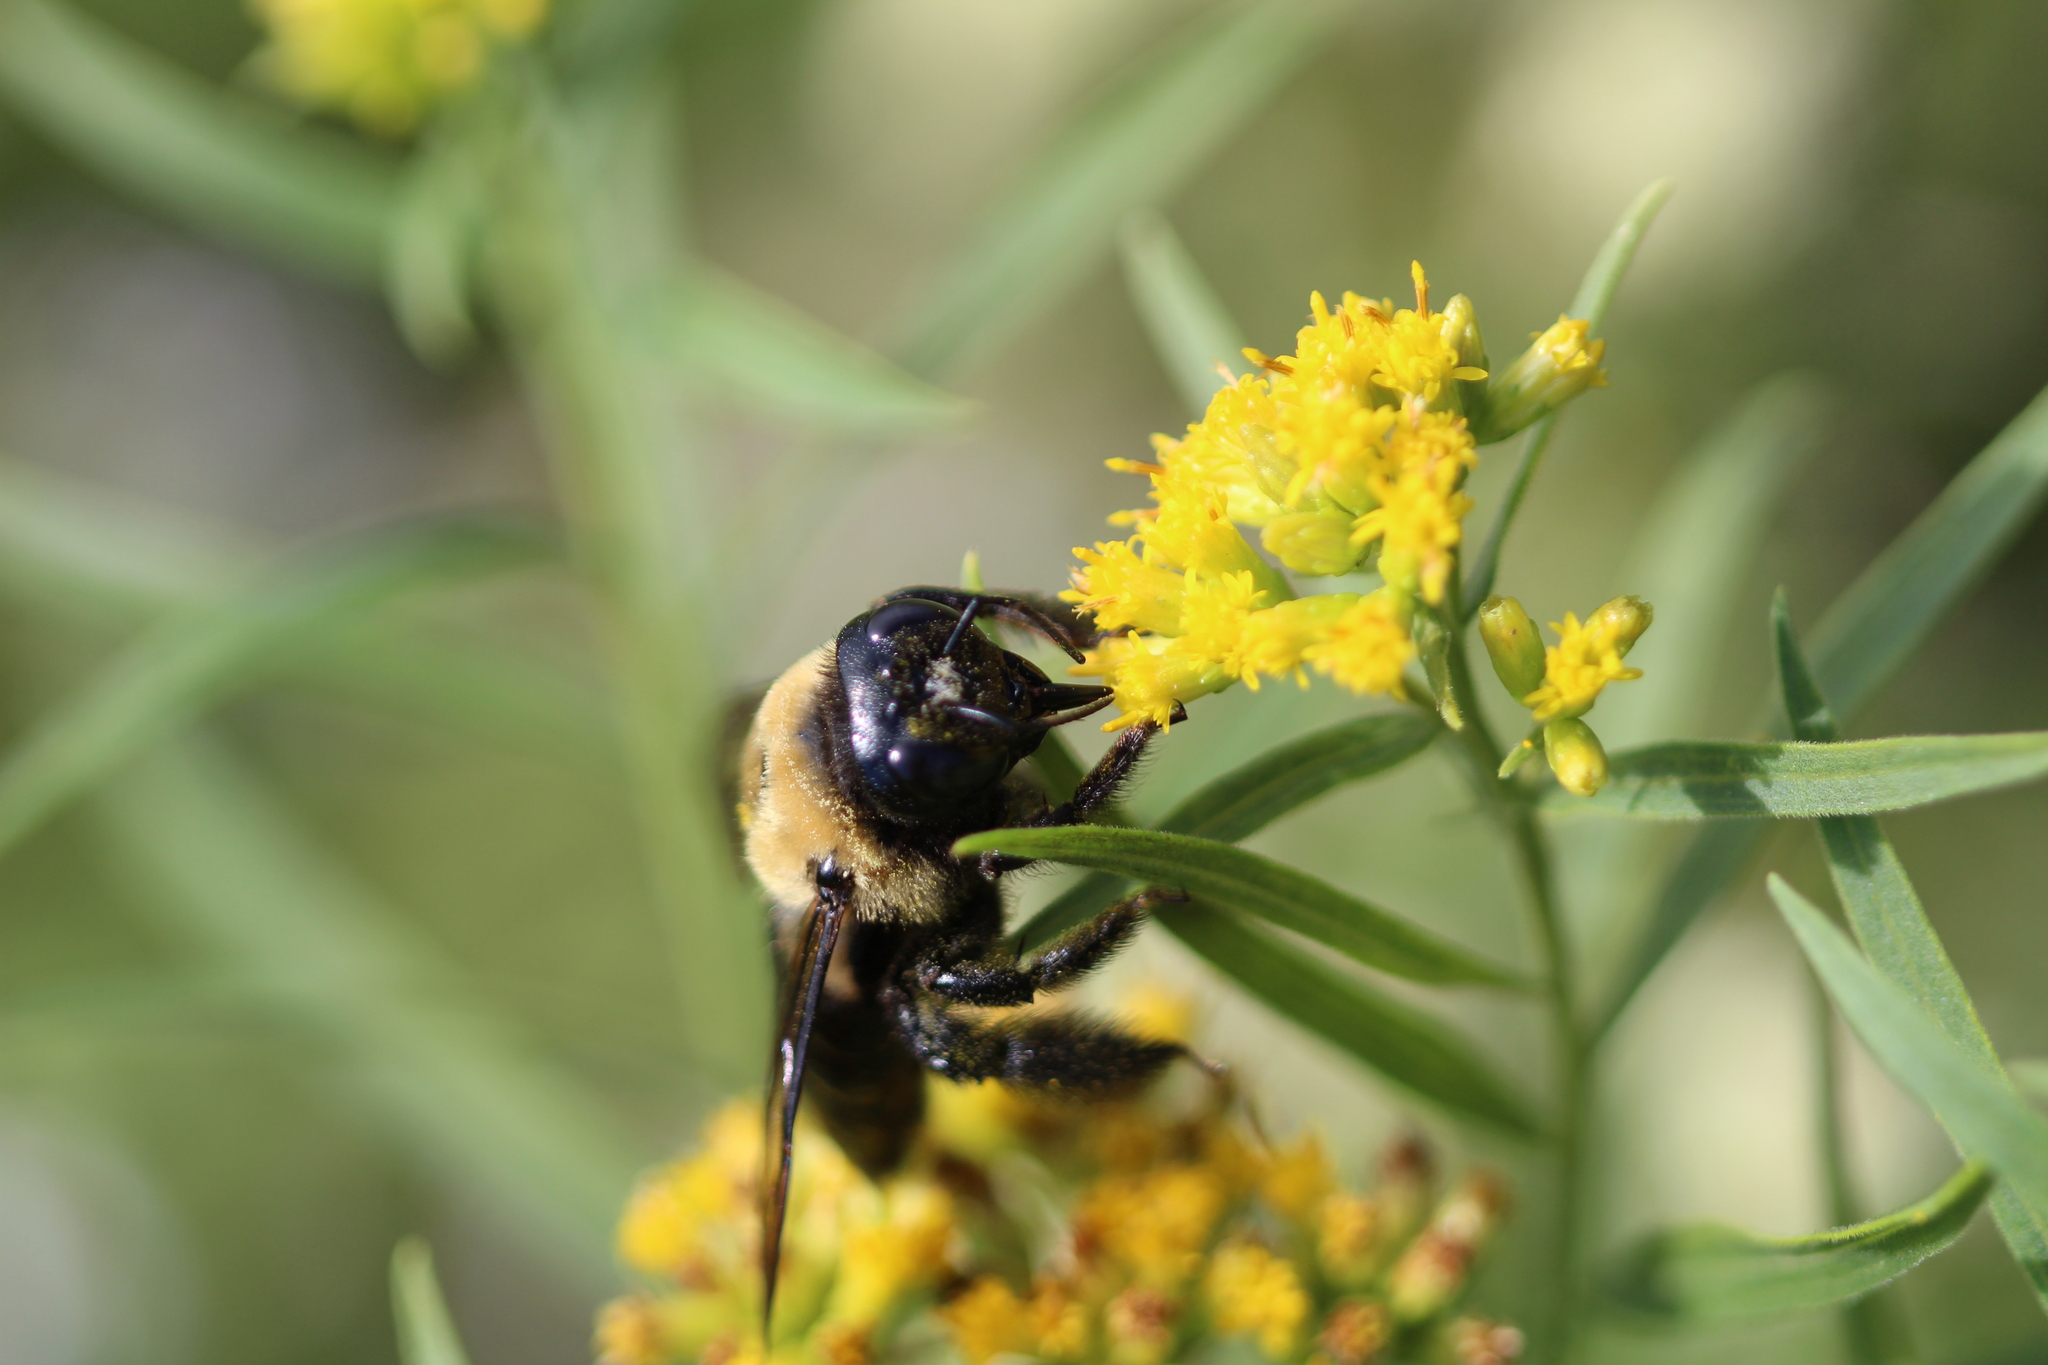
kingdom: Animalia
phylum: Arthropoda
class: Insecta
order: Hymenoptera
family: Apidae
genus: Xylocopa
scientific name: Xylocopa virginica
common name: Carpenter bee
